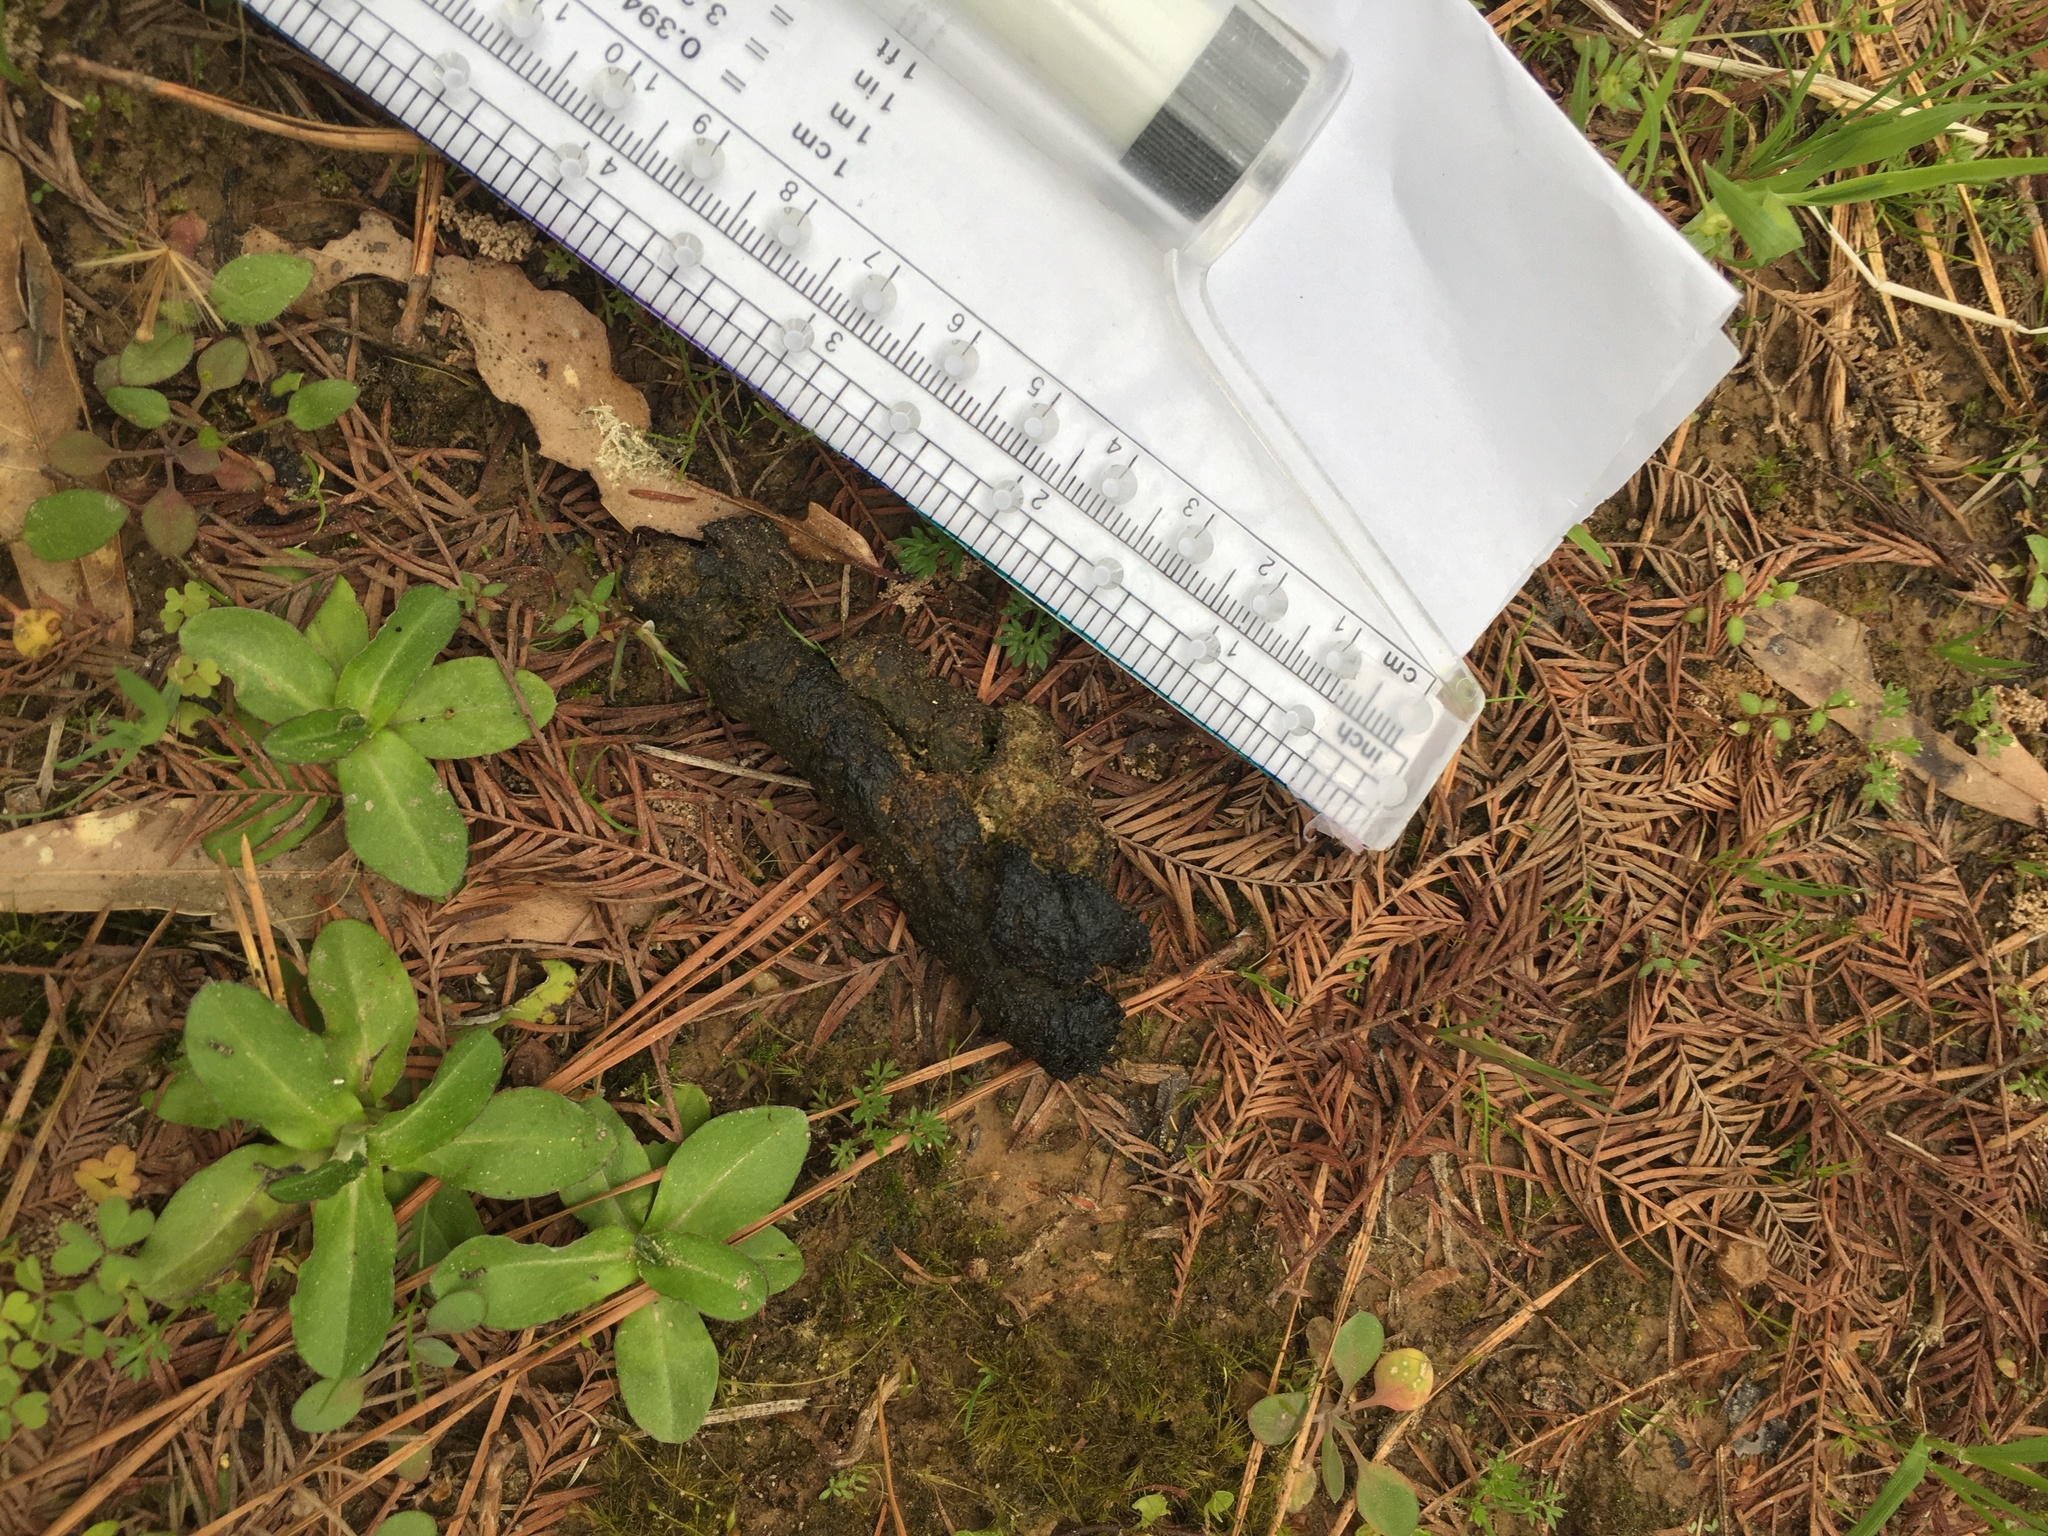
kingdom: Animalia
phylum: Chordata
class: Aves
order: Anseriformes
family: Anatidae
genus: Branta
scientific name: Branta canadensis
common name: Canada goose
